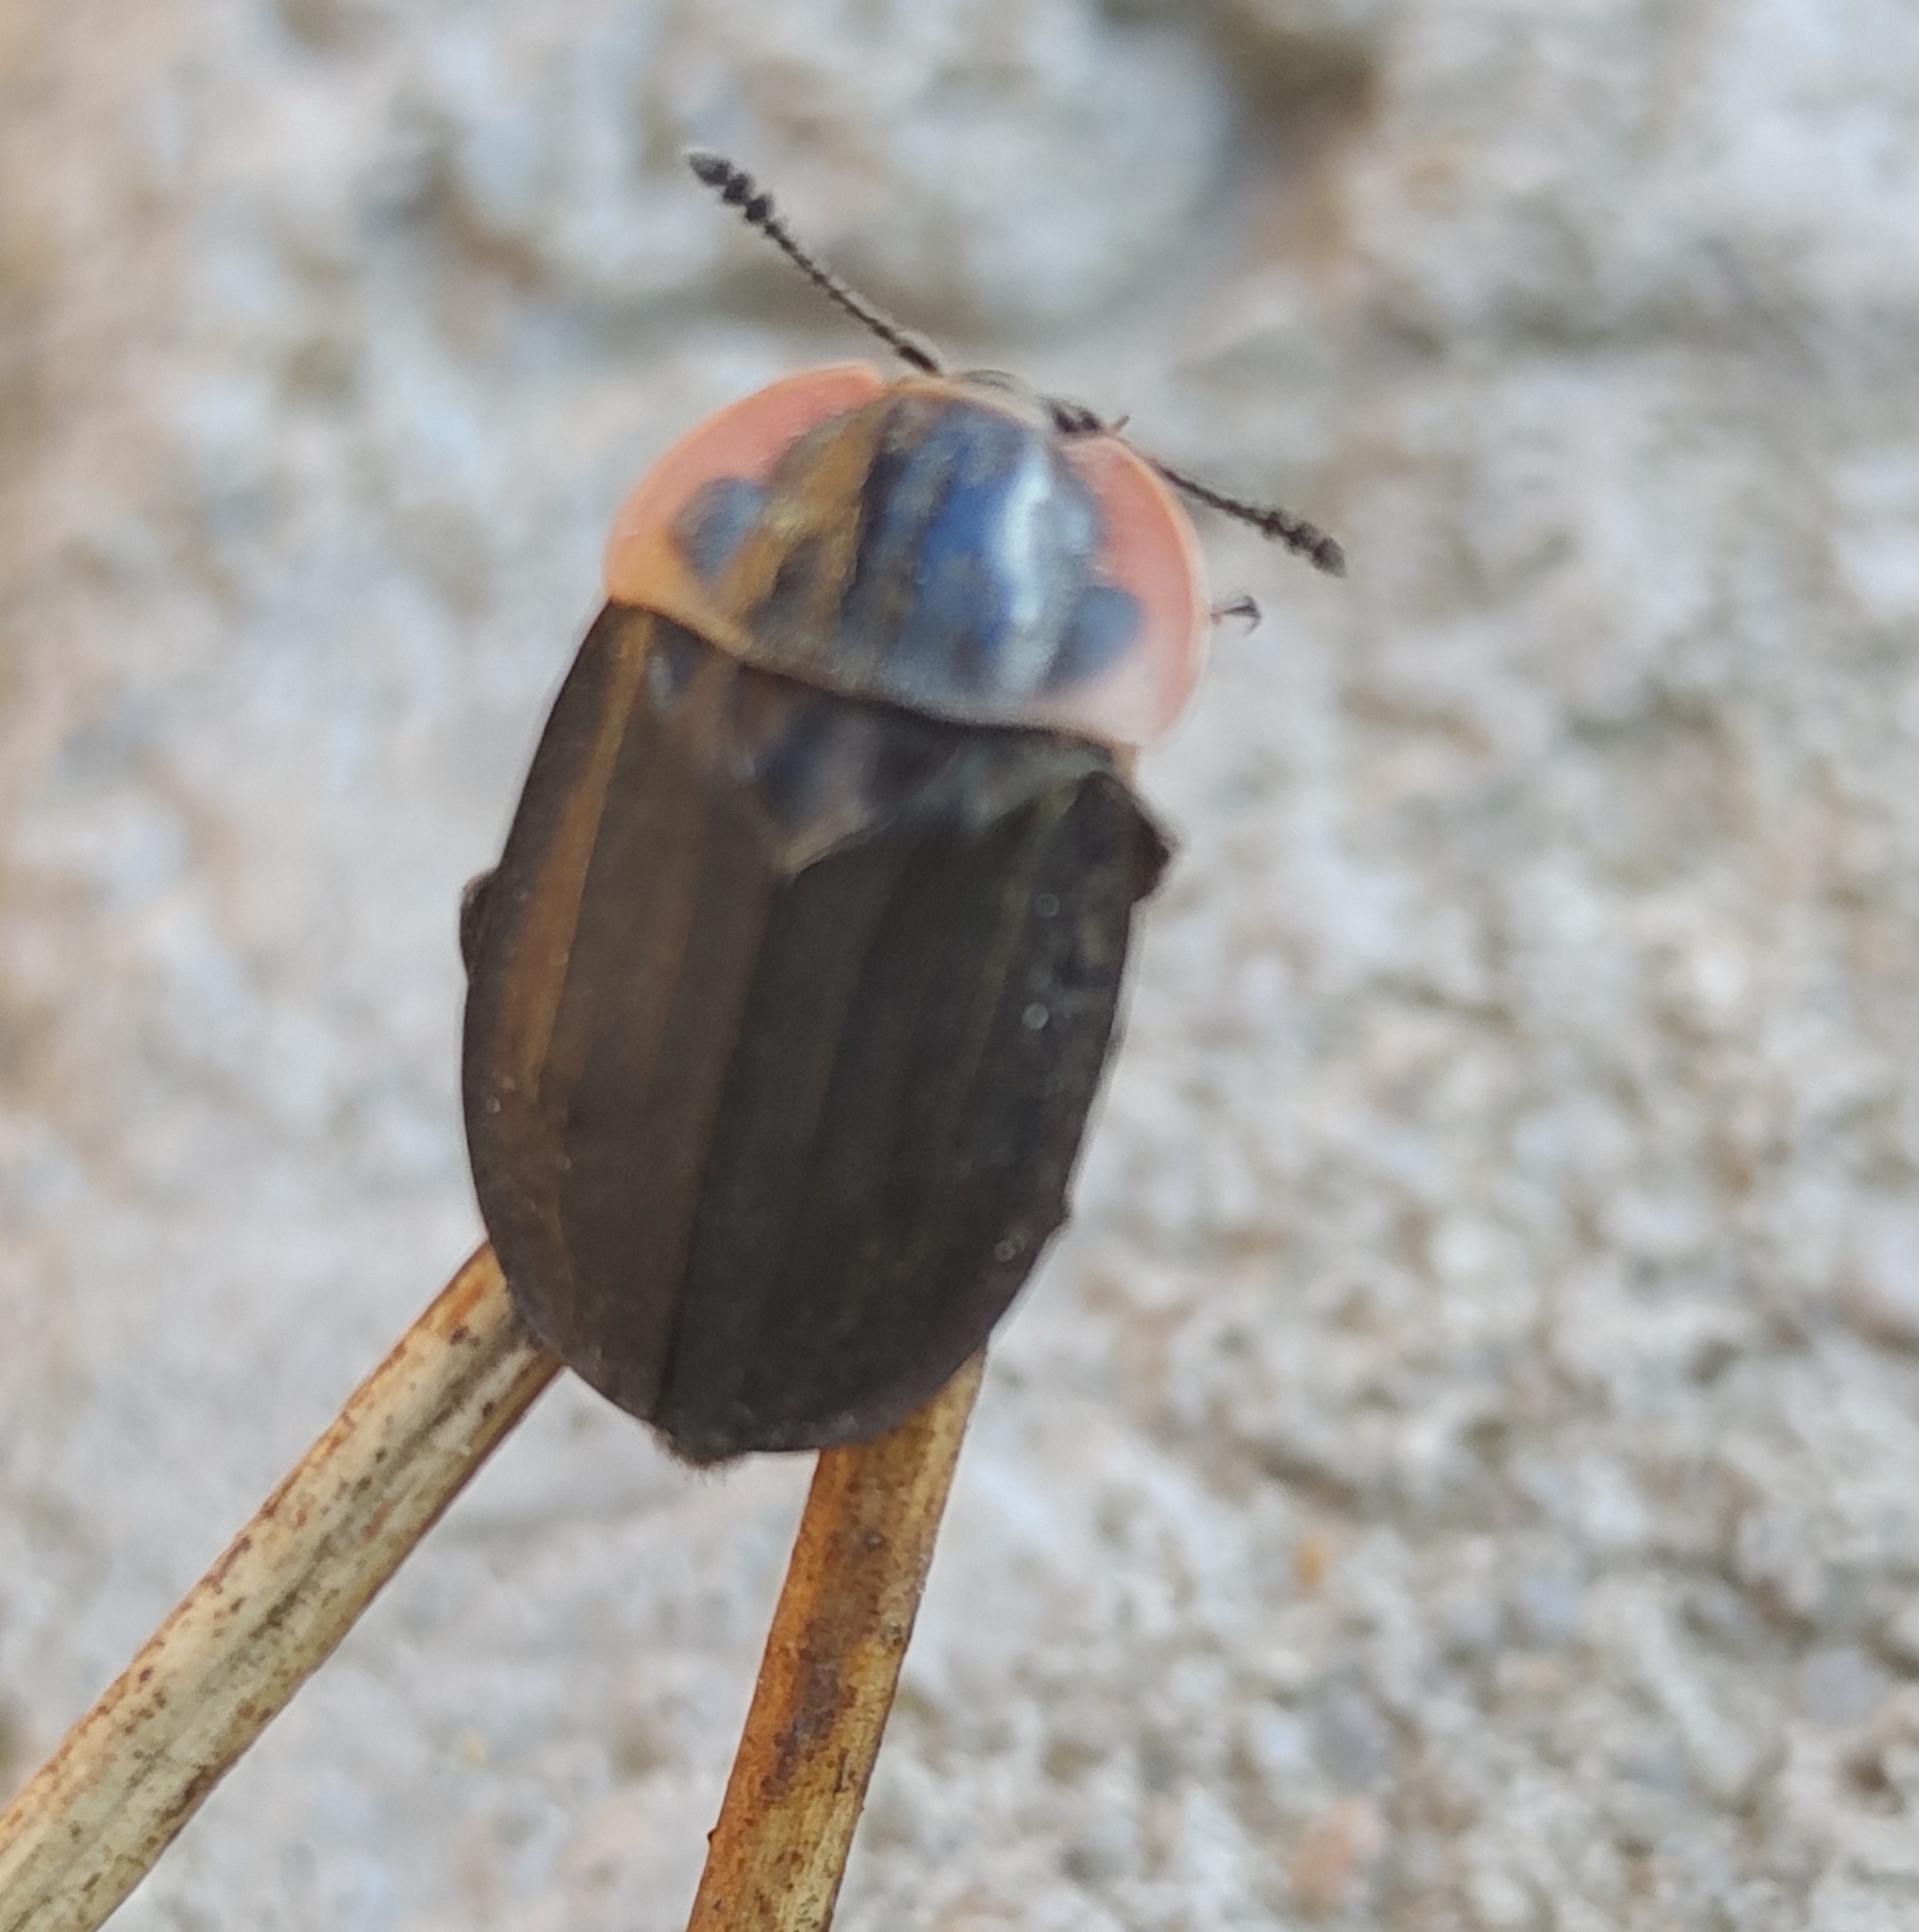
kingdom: Animalia
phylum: Arthropoda
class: Insecta
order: Coleoptera
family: Staphylinidae
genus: Oiceoptoma
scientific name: Oiceoptoma noveboracense
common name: Margined carrion beetle
